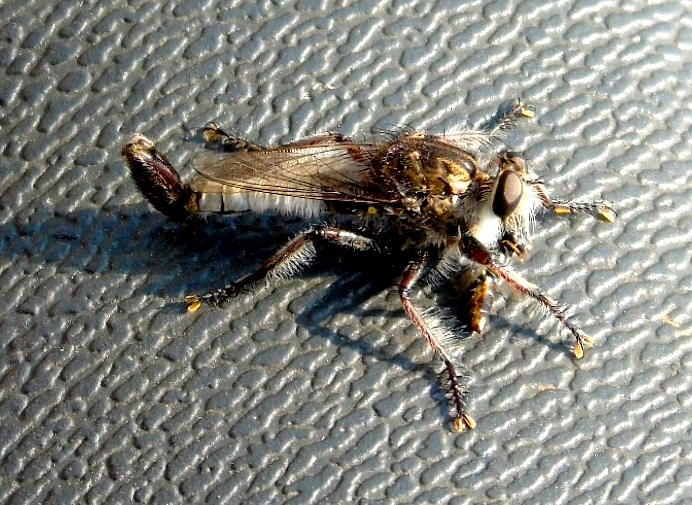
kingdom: Animalia
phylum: Arthropoda
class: Insecta
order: Diptera
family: Asilidae
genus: Efferia
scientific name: Efferia
